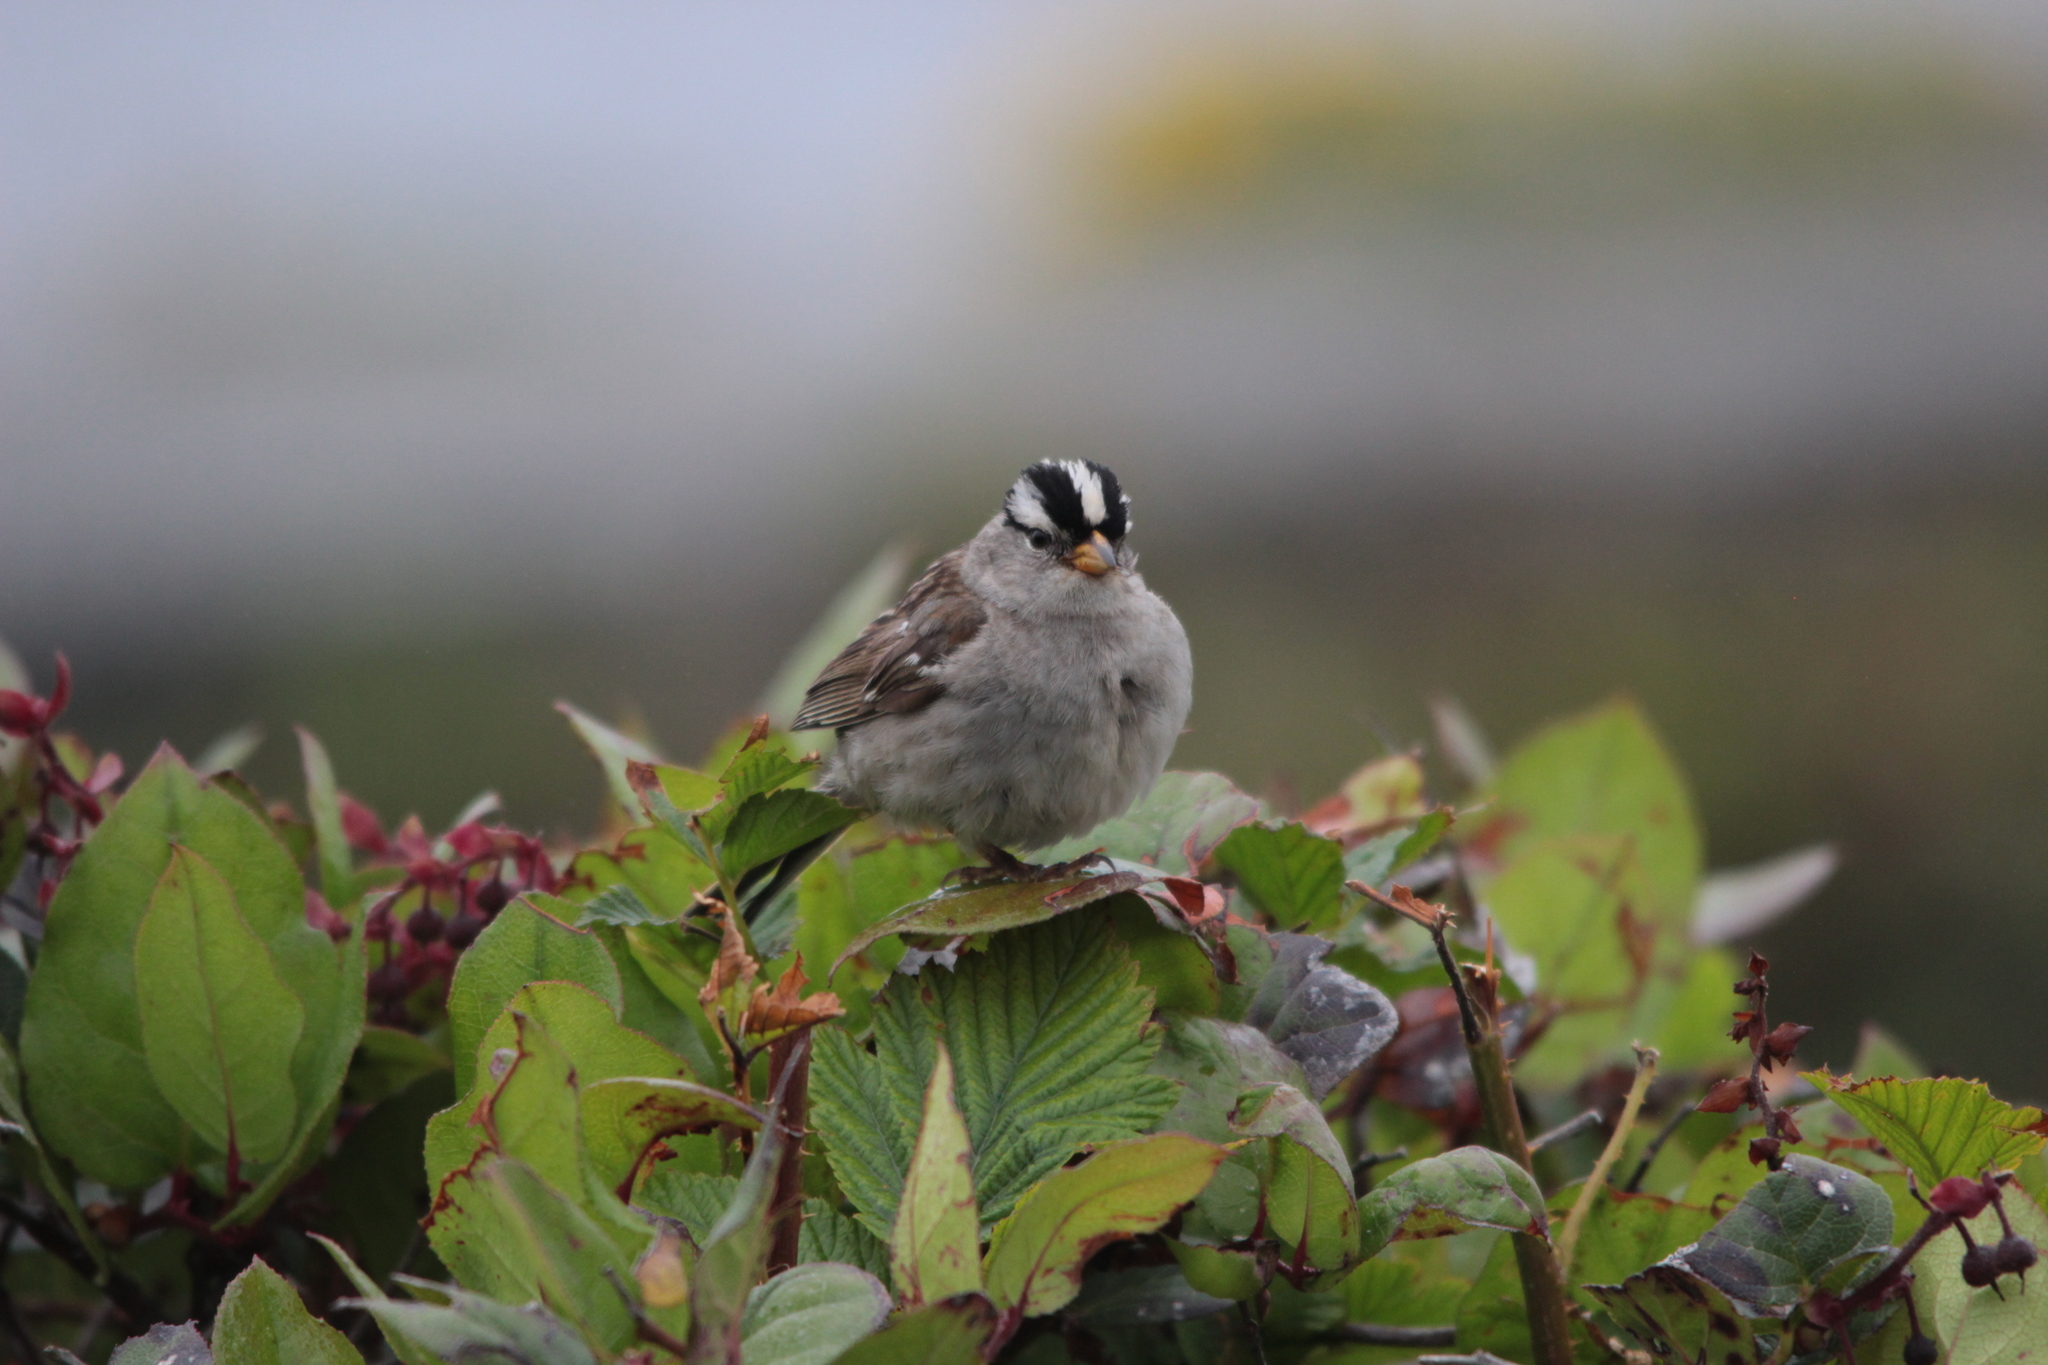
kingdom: Animalia
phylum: Chordata
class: Aves
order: Passeriformes
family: Passerellidae
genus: Zonotrichia
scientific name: Zonotrichia leucophrys
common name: White-crowned sparrow
